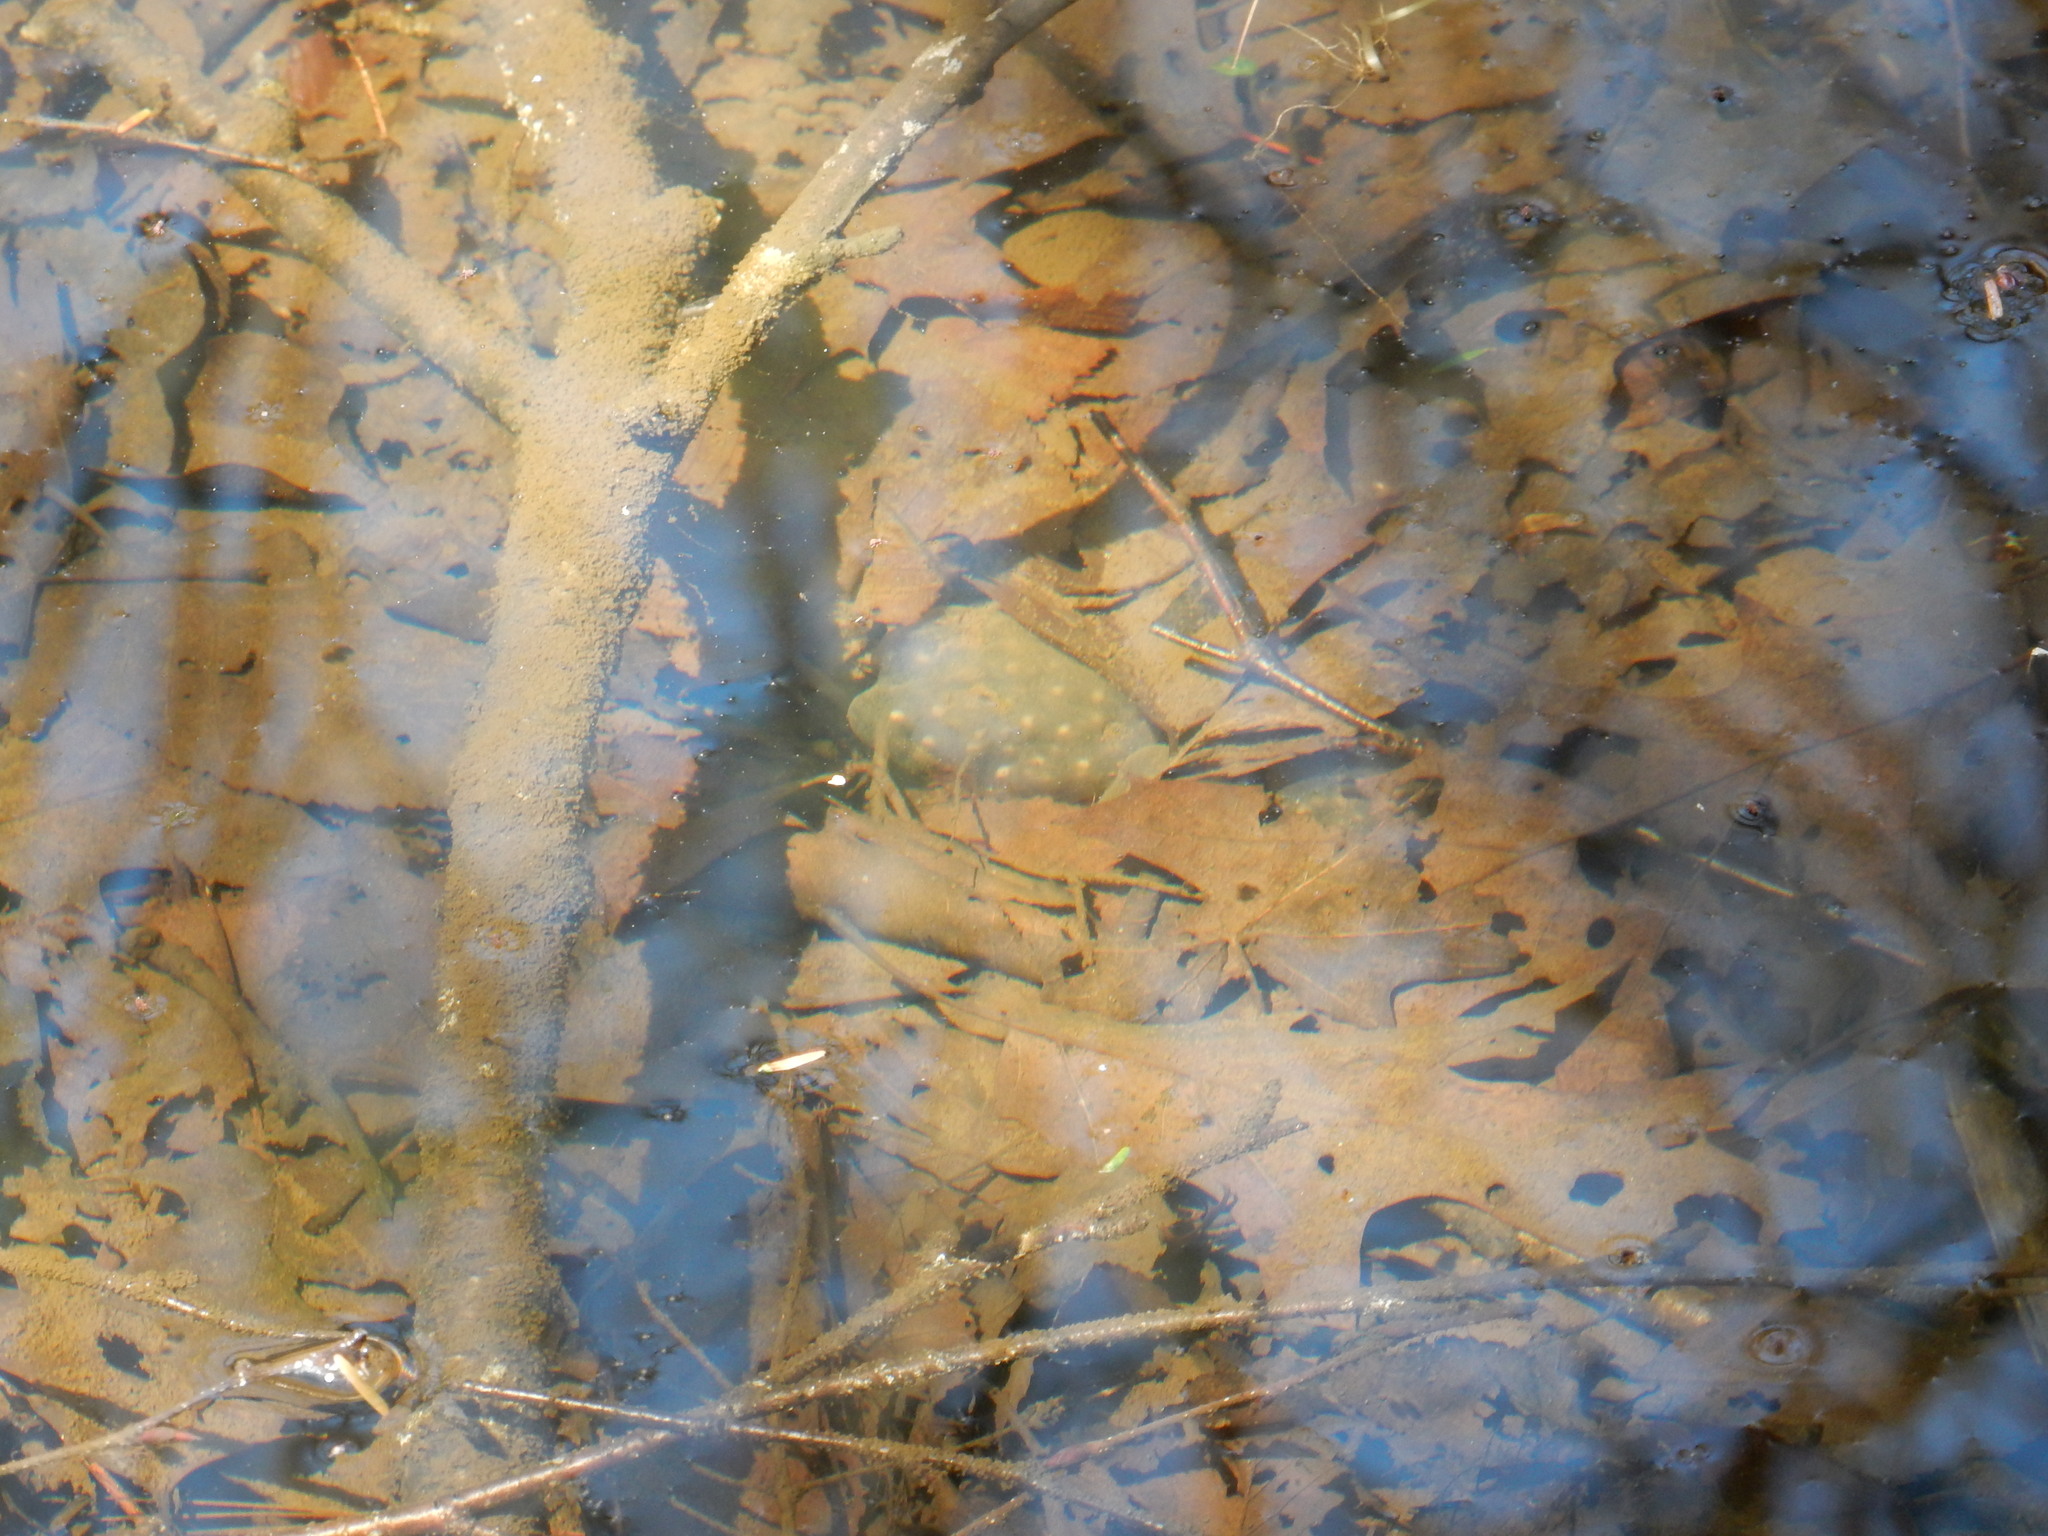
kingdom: Animalia
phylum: Chordata
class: Amphibia
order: Caudata
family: Ambystomatidae
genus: Ambystoma
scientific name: Ambystoma maculatum
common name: Spotted salamander
